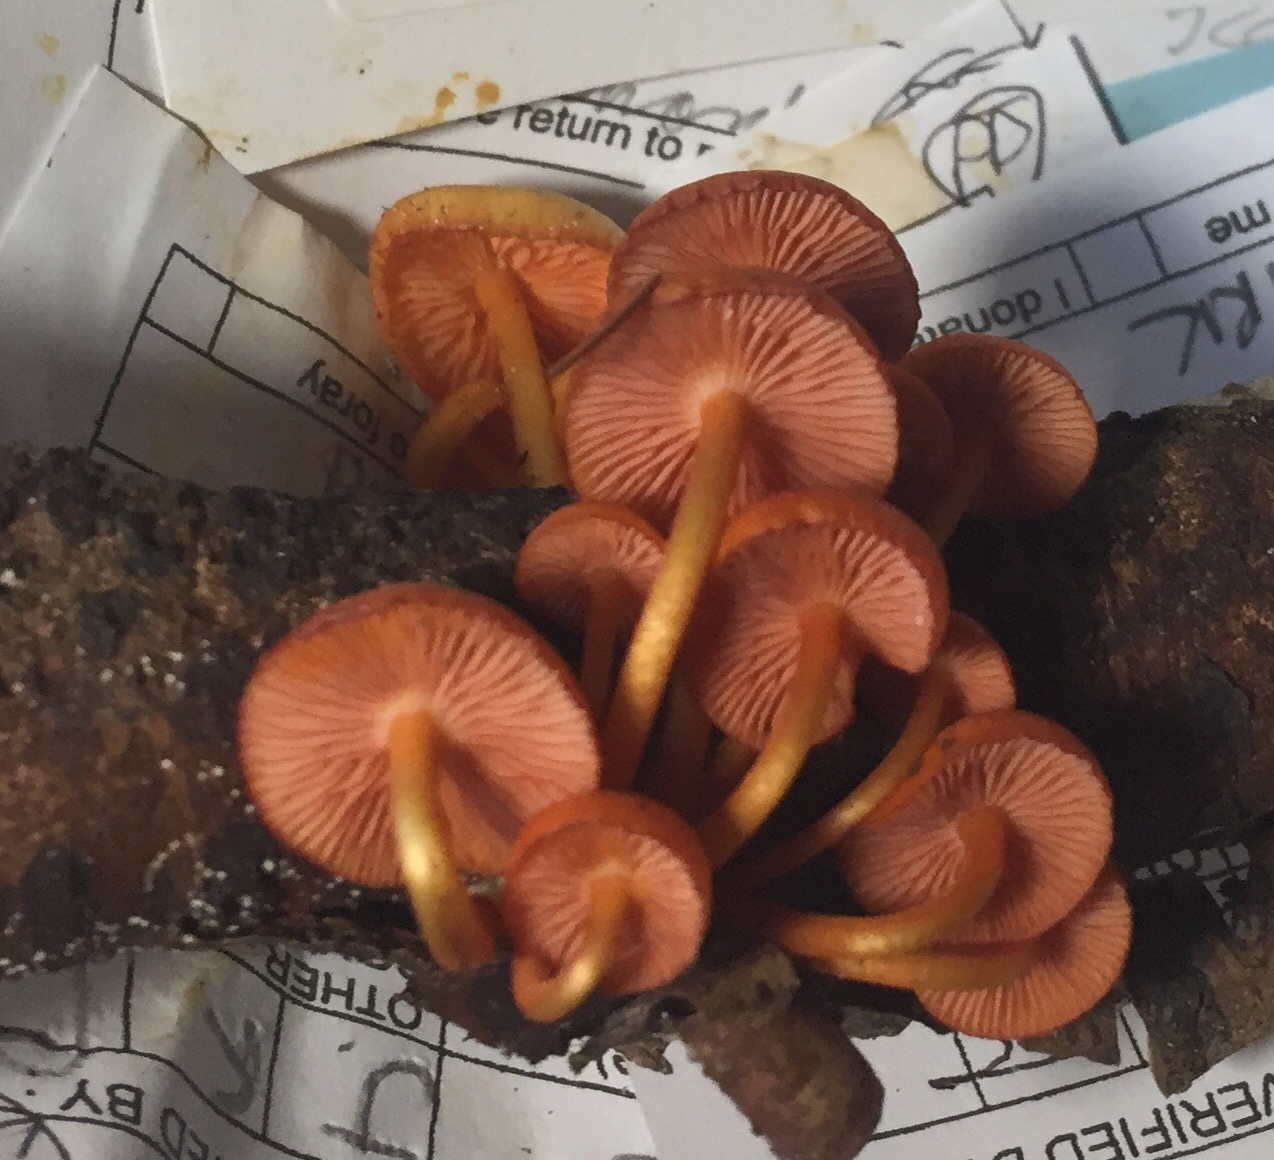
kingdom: Fungi
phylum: Basidiomycota
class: Agaricomycetes
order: Agaricales
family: Mycenaceae
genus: Mycena
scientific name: Mycena leaiana
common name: Orange mycena
